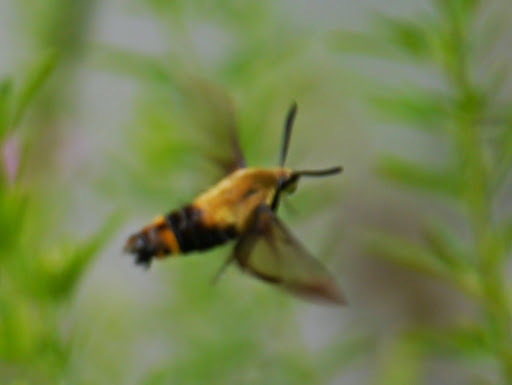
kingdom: Animalia
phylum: Arthropoda
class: Insecta
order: Lepidoptera
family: Sphingidae
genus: Hemaris
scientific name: Hemaris diffinis
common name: Bumblebee moth
